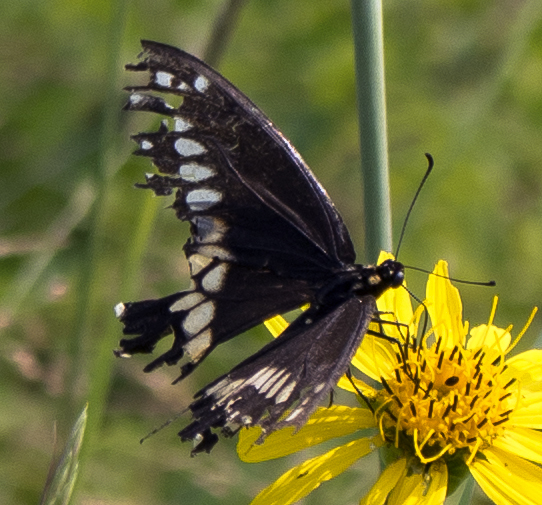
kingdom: Animalia
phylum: Arthropoda
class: Insecta
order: Lepidoptera
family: Papilionidae
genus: Papilio
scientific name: Papilio polyxenes
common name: Black swallowtail
